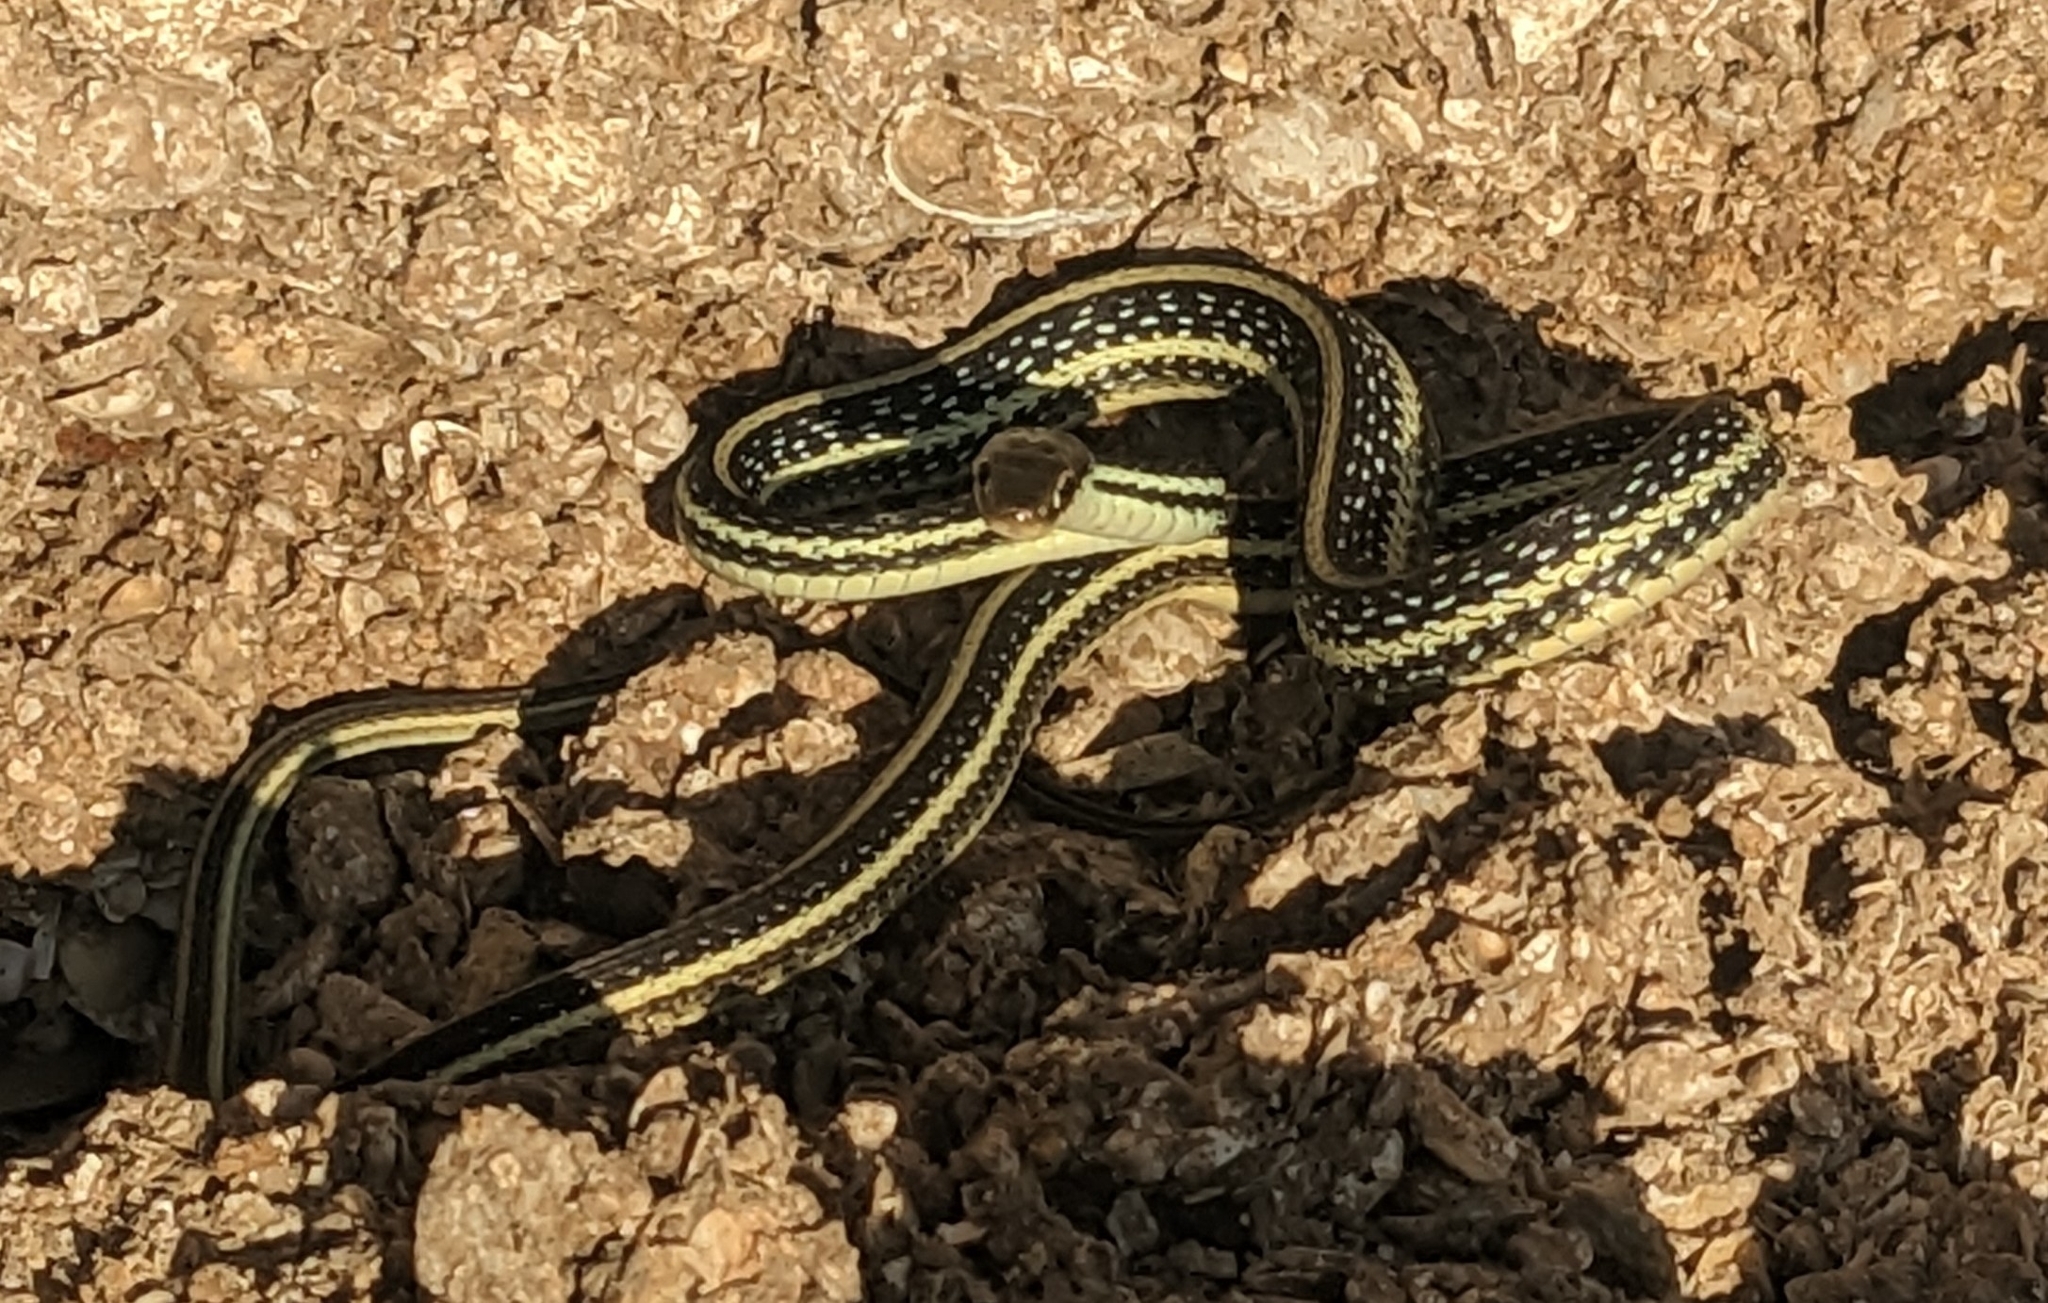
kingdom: Animalia
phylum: Chordata
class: Squamata
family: Colubridae
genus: Thamnophis
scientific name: Thamnophis proximus
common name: Western ribbon snake
